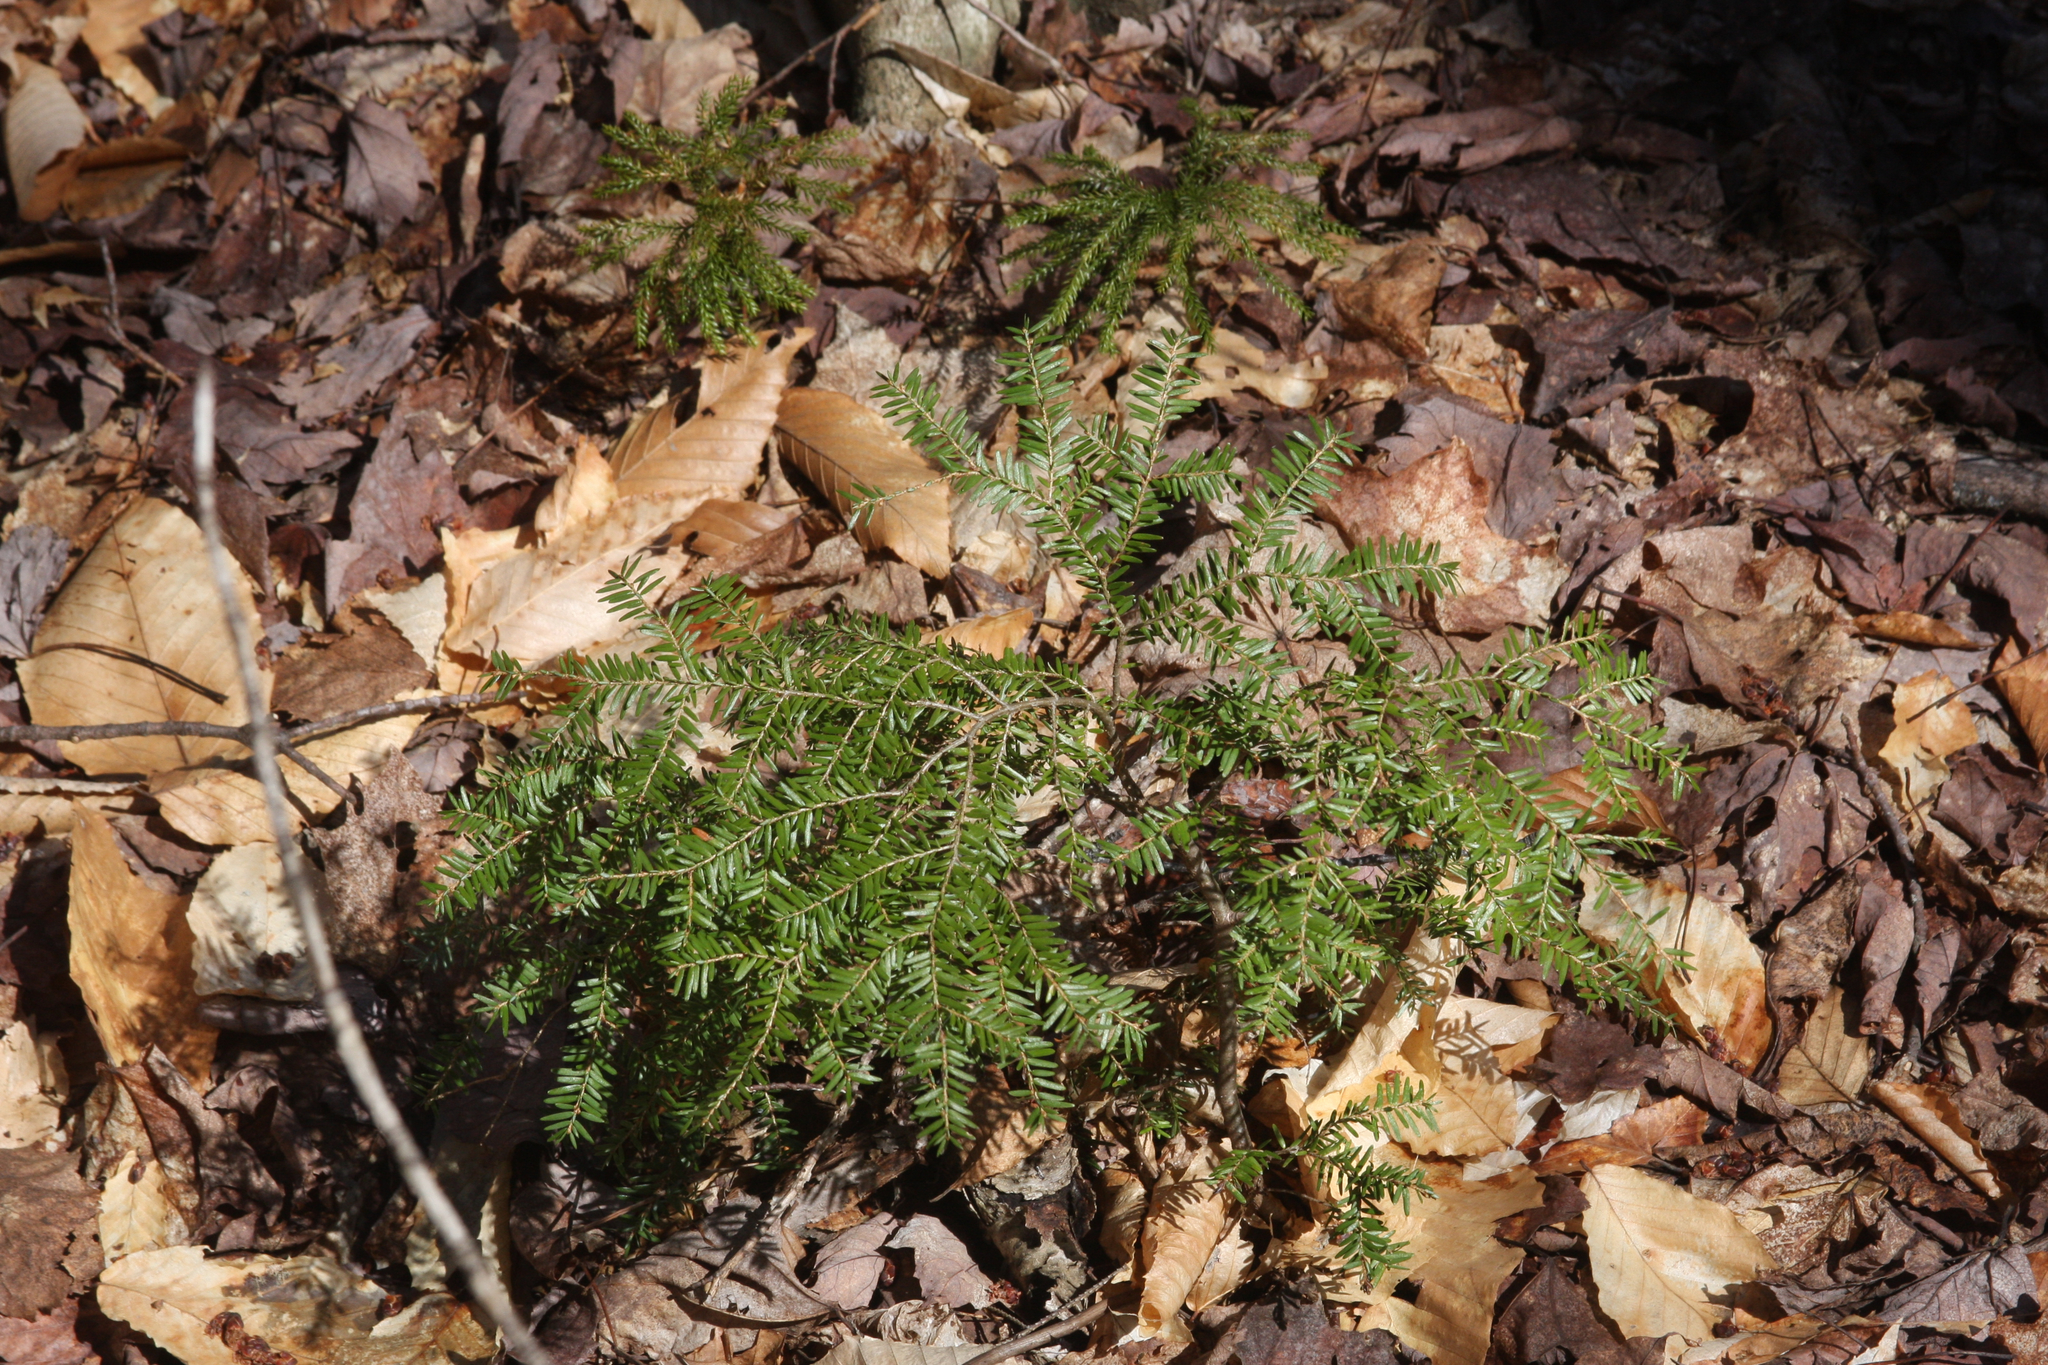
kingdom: Plantae
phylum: Tracheophyta
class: Pinopsida
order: Pinales
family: Pinaceae
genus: Tsuga
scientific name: Tsuga canadensis
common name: Eastern hemlock
